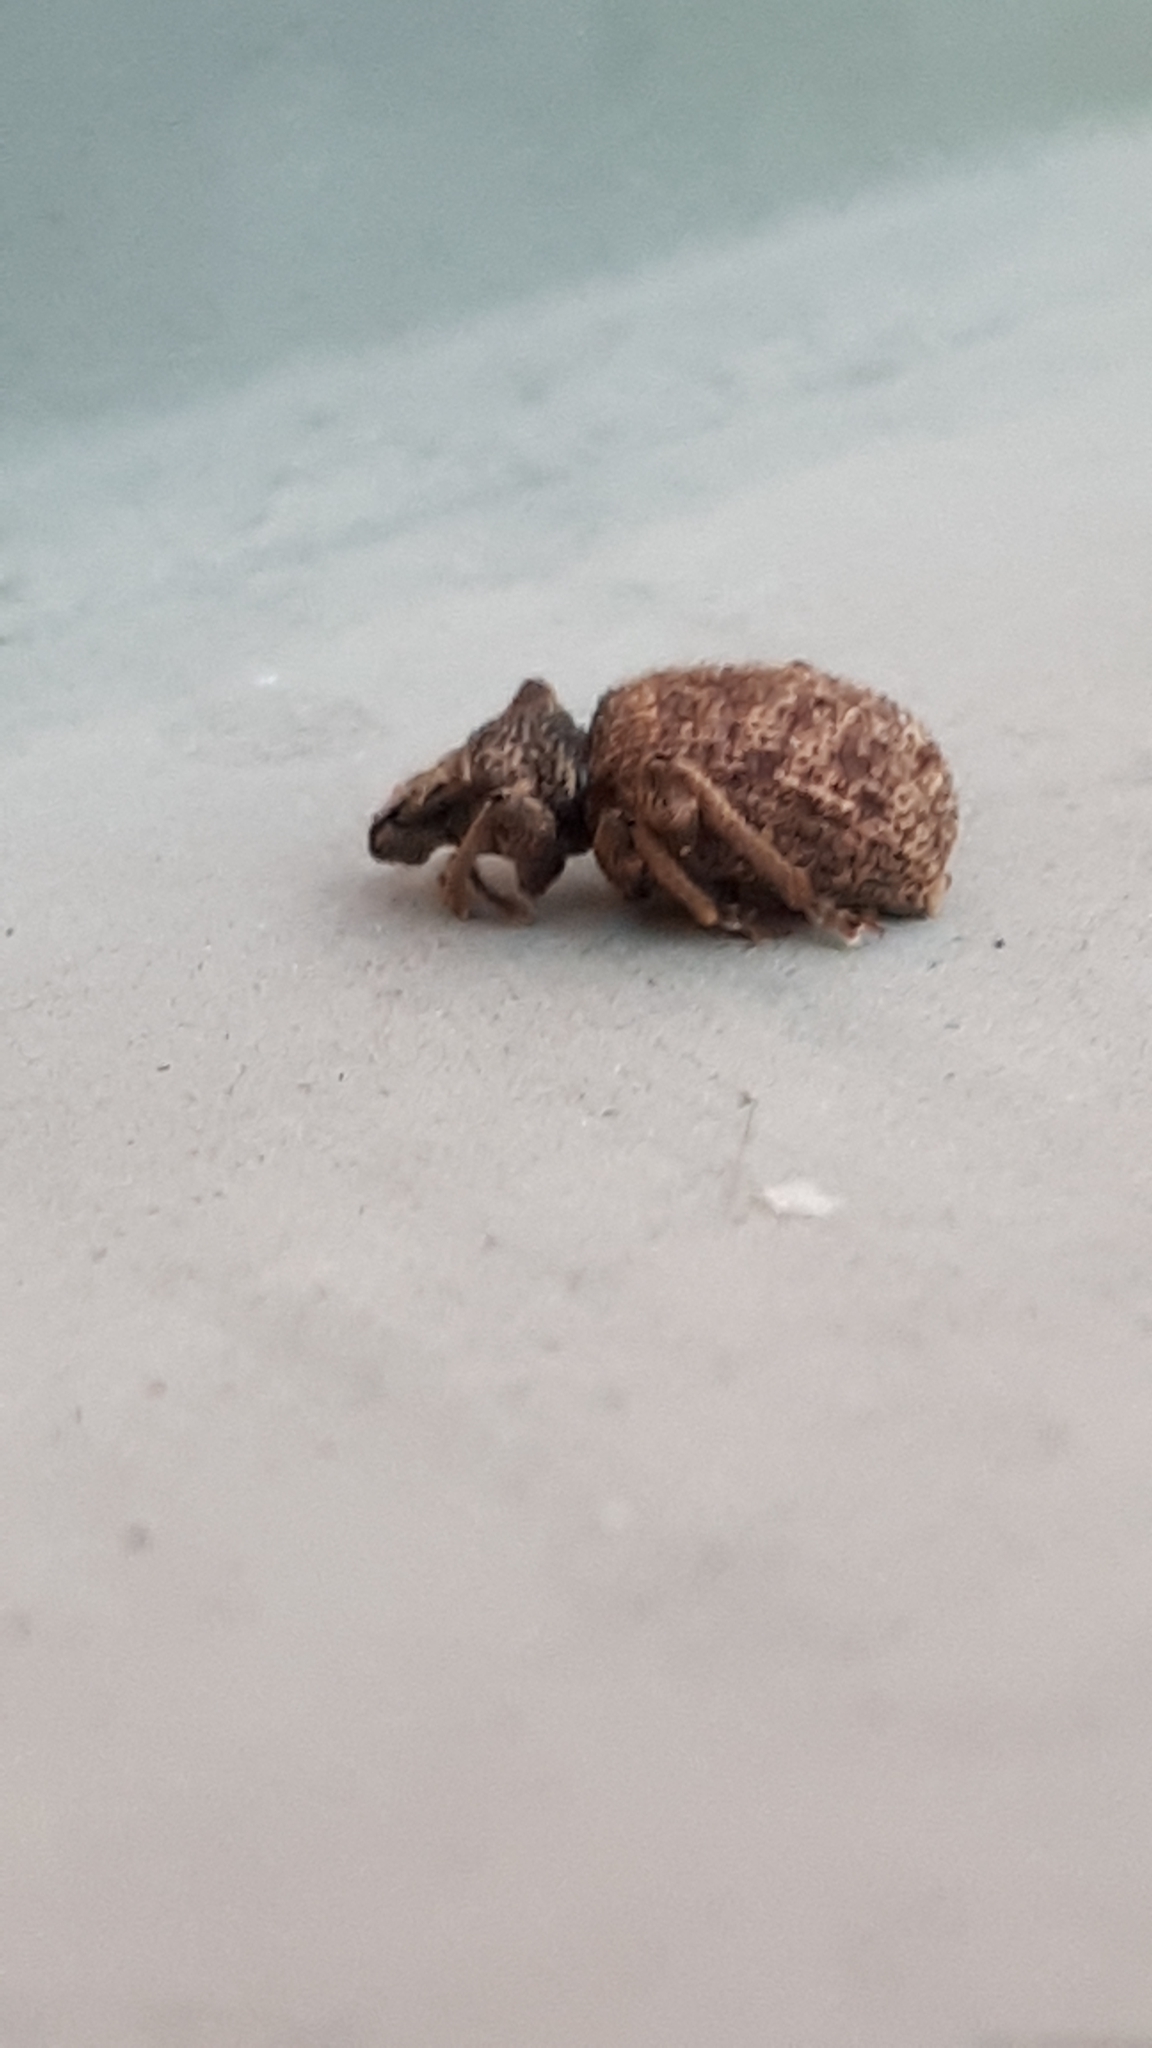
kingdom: Animalia
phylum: Arthropoda
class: Insecta
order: Coleoptera
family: Curculionidae
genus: Otiorhynchus
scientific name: Otiorhynchus crataegi
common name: Privet weevil
